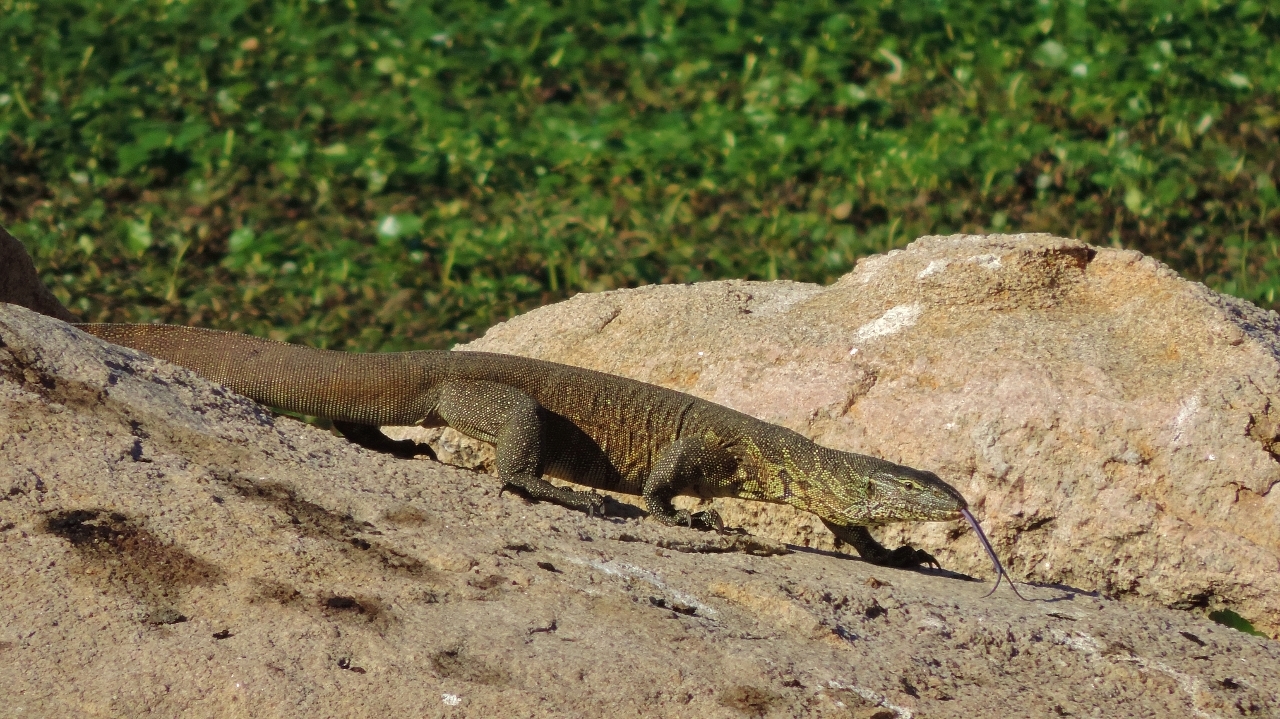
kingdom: Animalia
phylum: Chordata
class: Squamata
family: Varanidae
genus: Varanus
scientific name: Varanus niloticus
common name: Nile monitor
